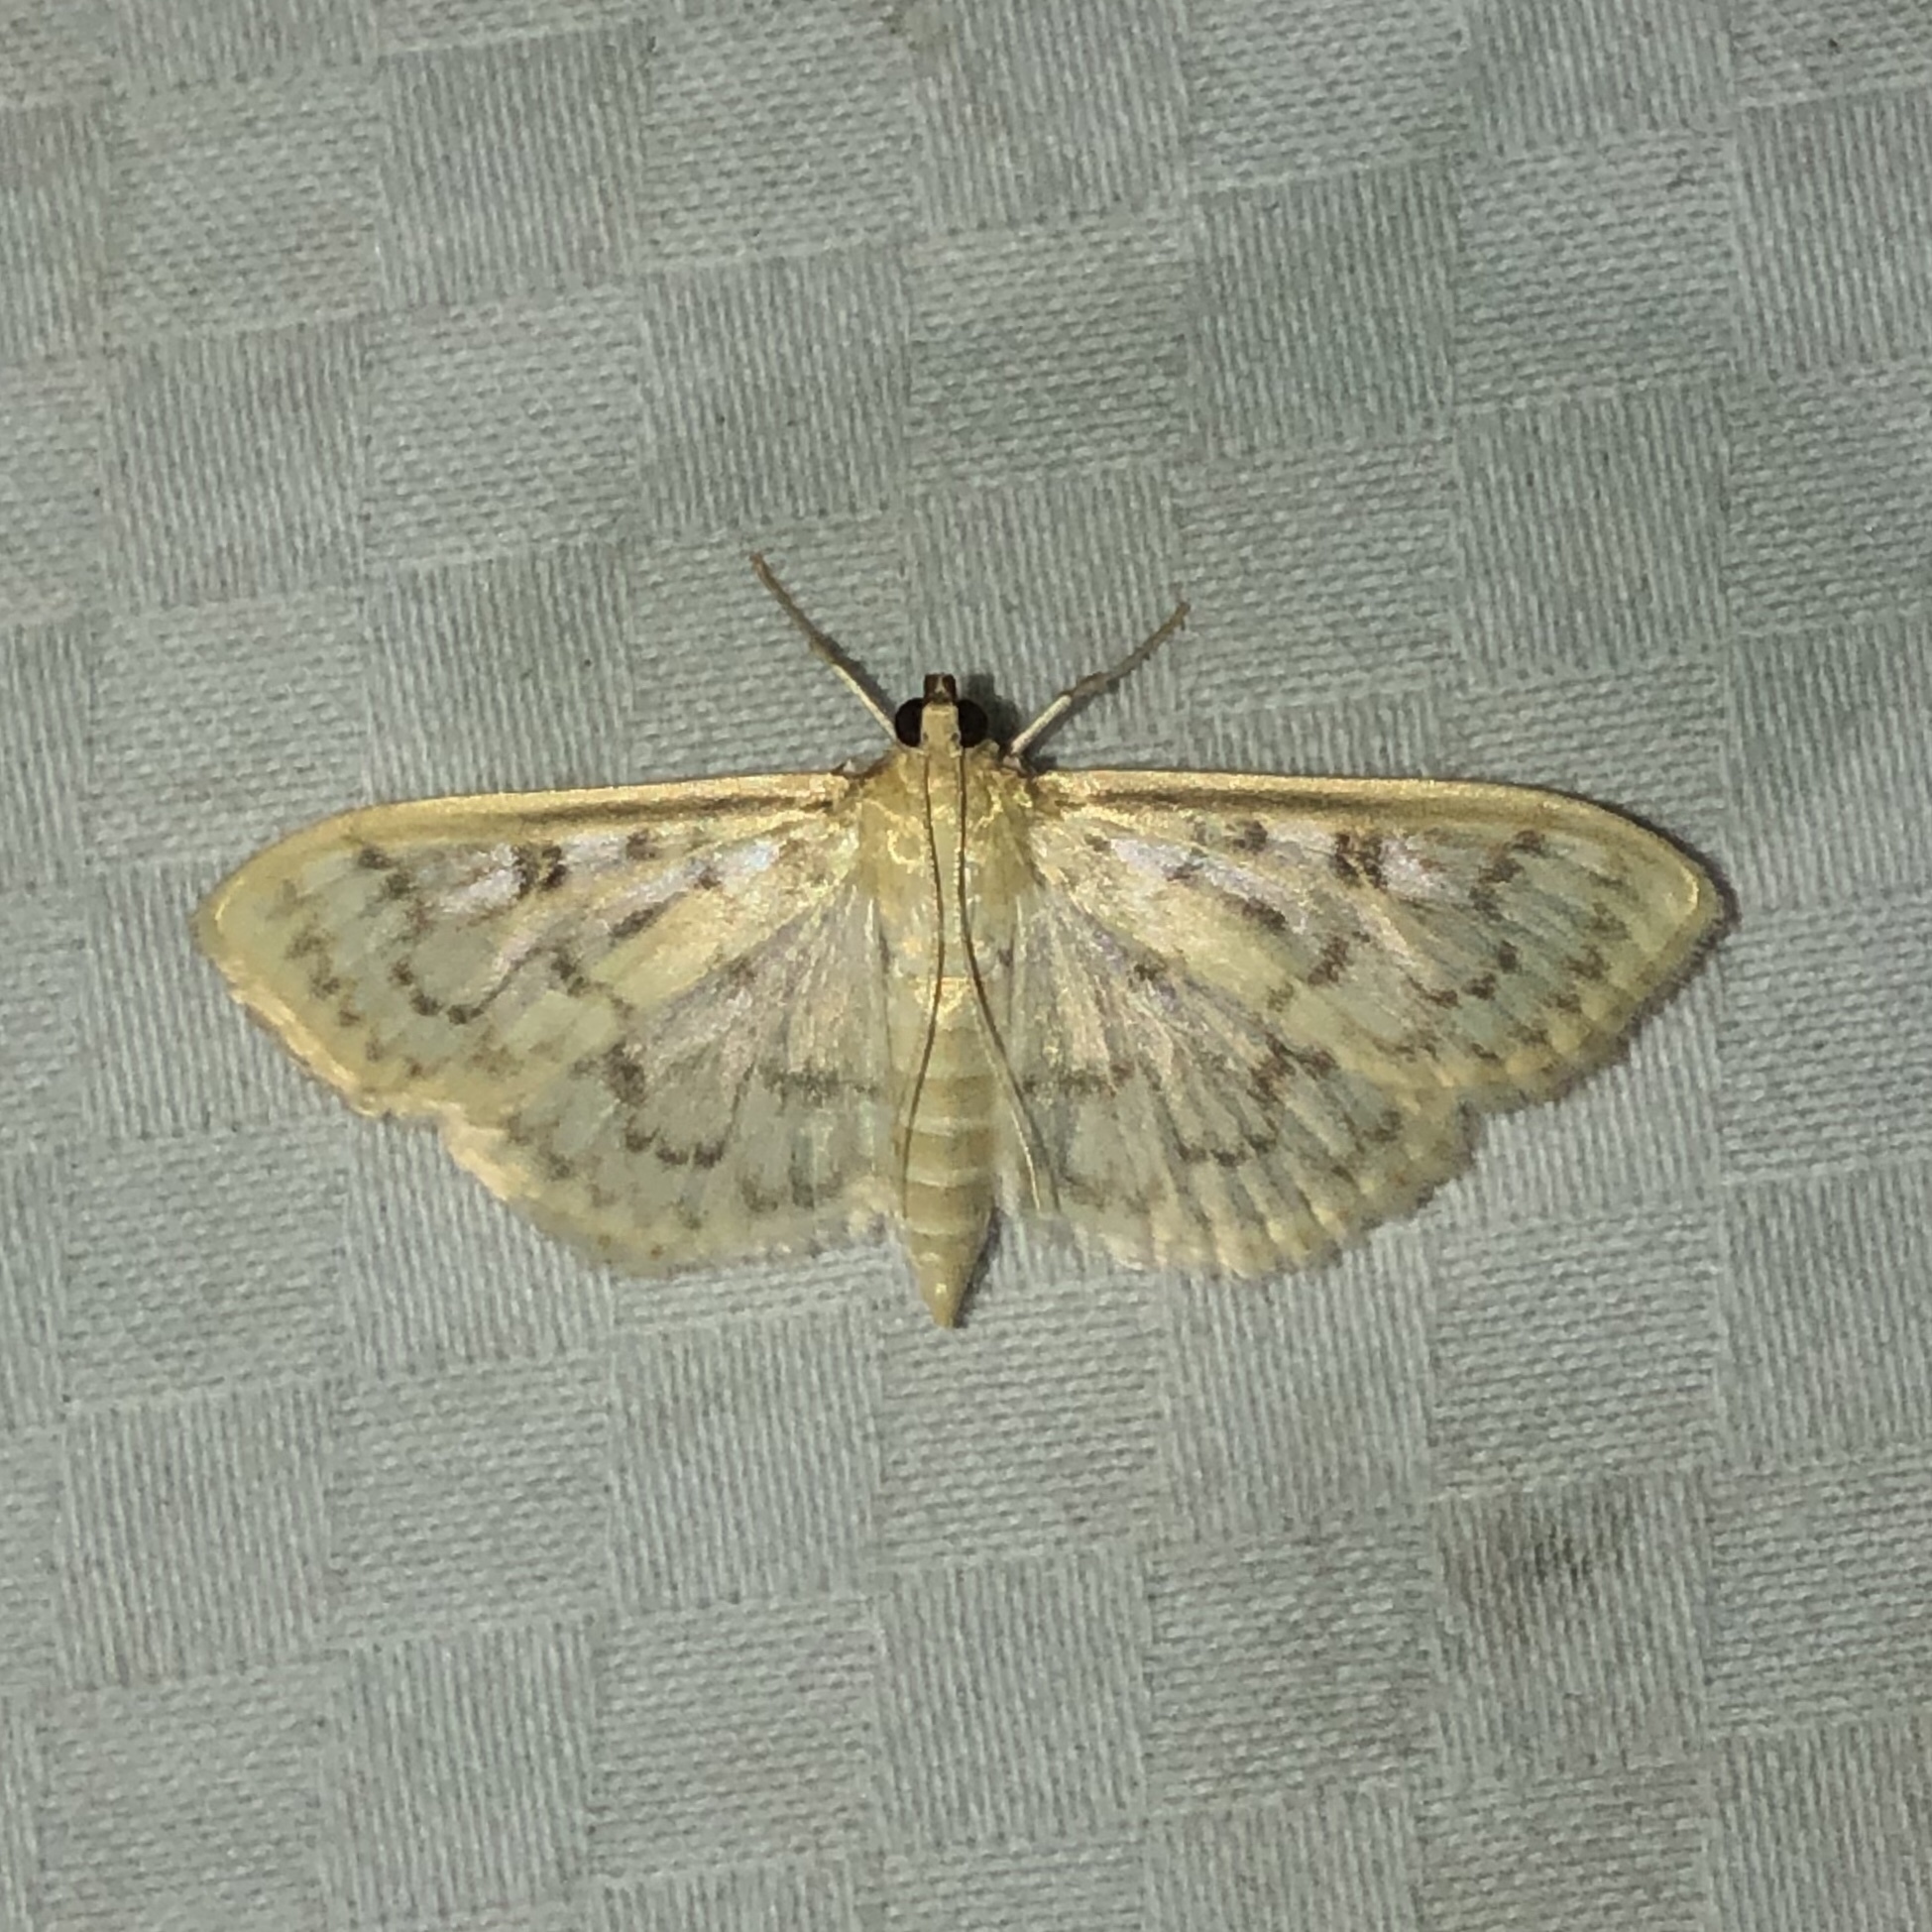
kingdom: Animalia
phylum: Arthropoda
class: Insecta
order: Lepidoptera
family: Crambidae
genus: Herpetogramma
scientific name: Herpetogramma aquilonalis
